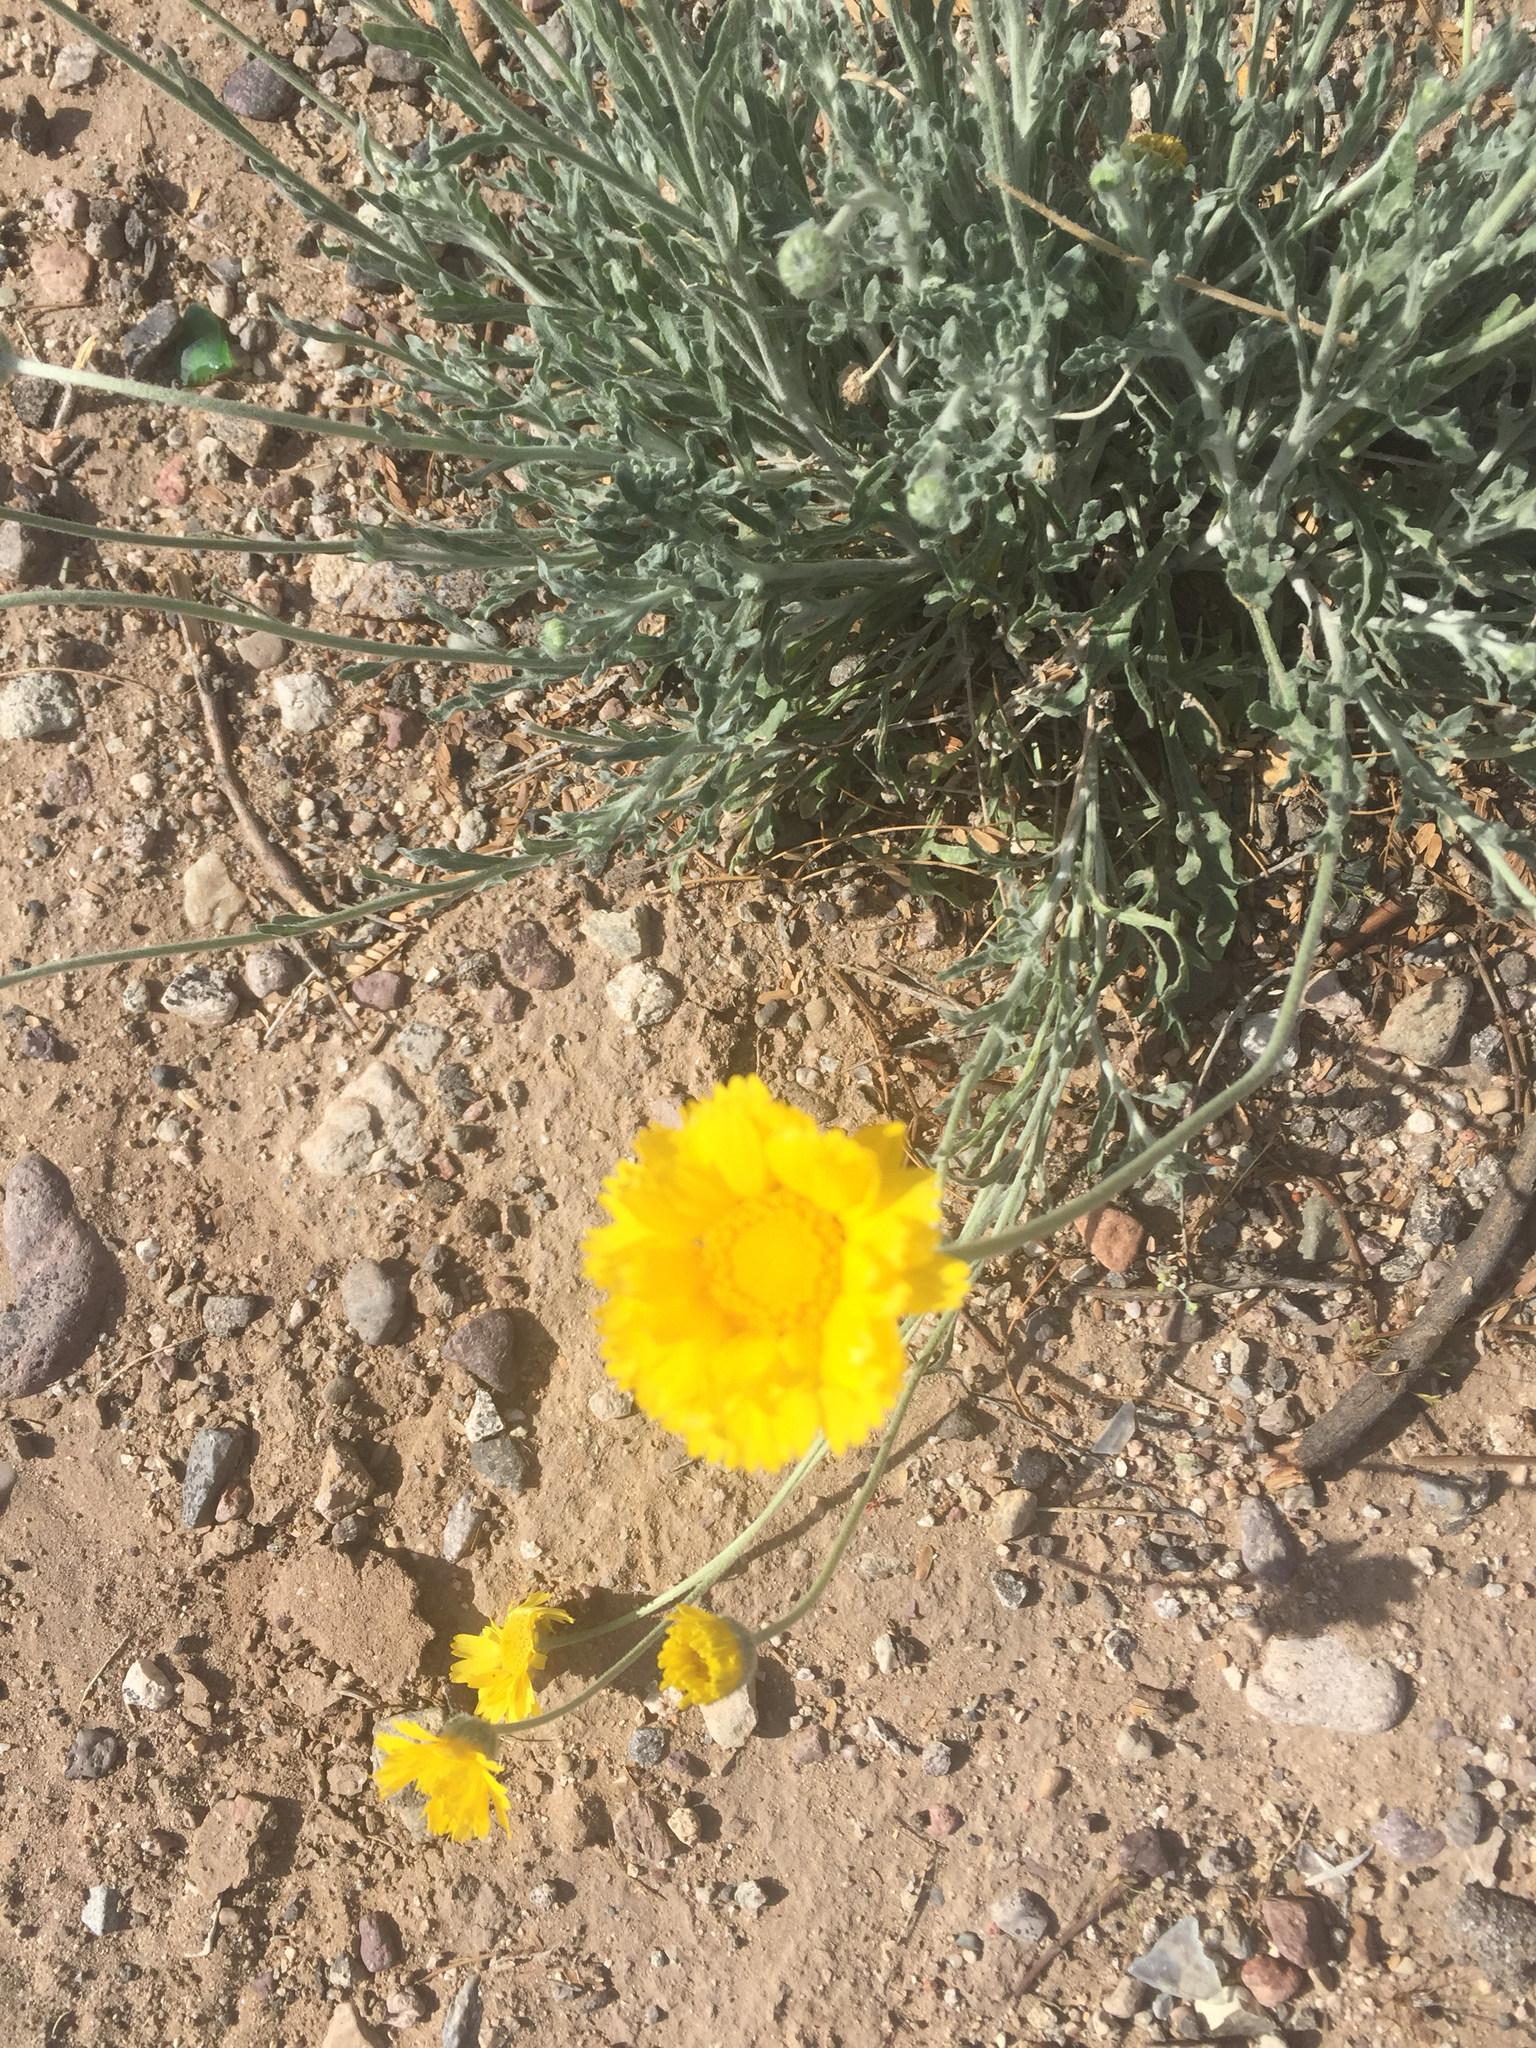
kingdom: Plantae
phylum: Tracheophyta
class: Magnoliopsida
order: Asterales
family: Asteraceae
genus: Baileya
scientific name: Baileya multiradiata
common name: Desert-marigold
